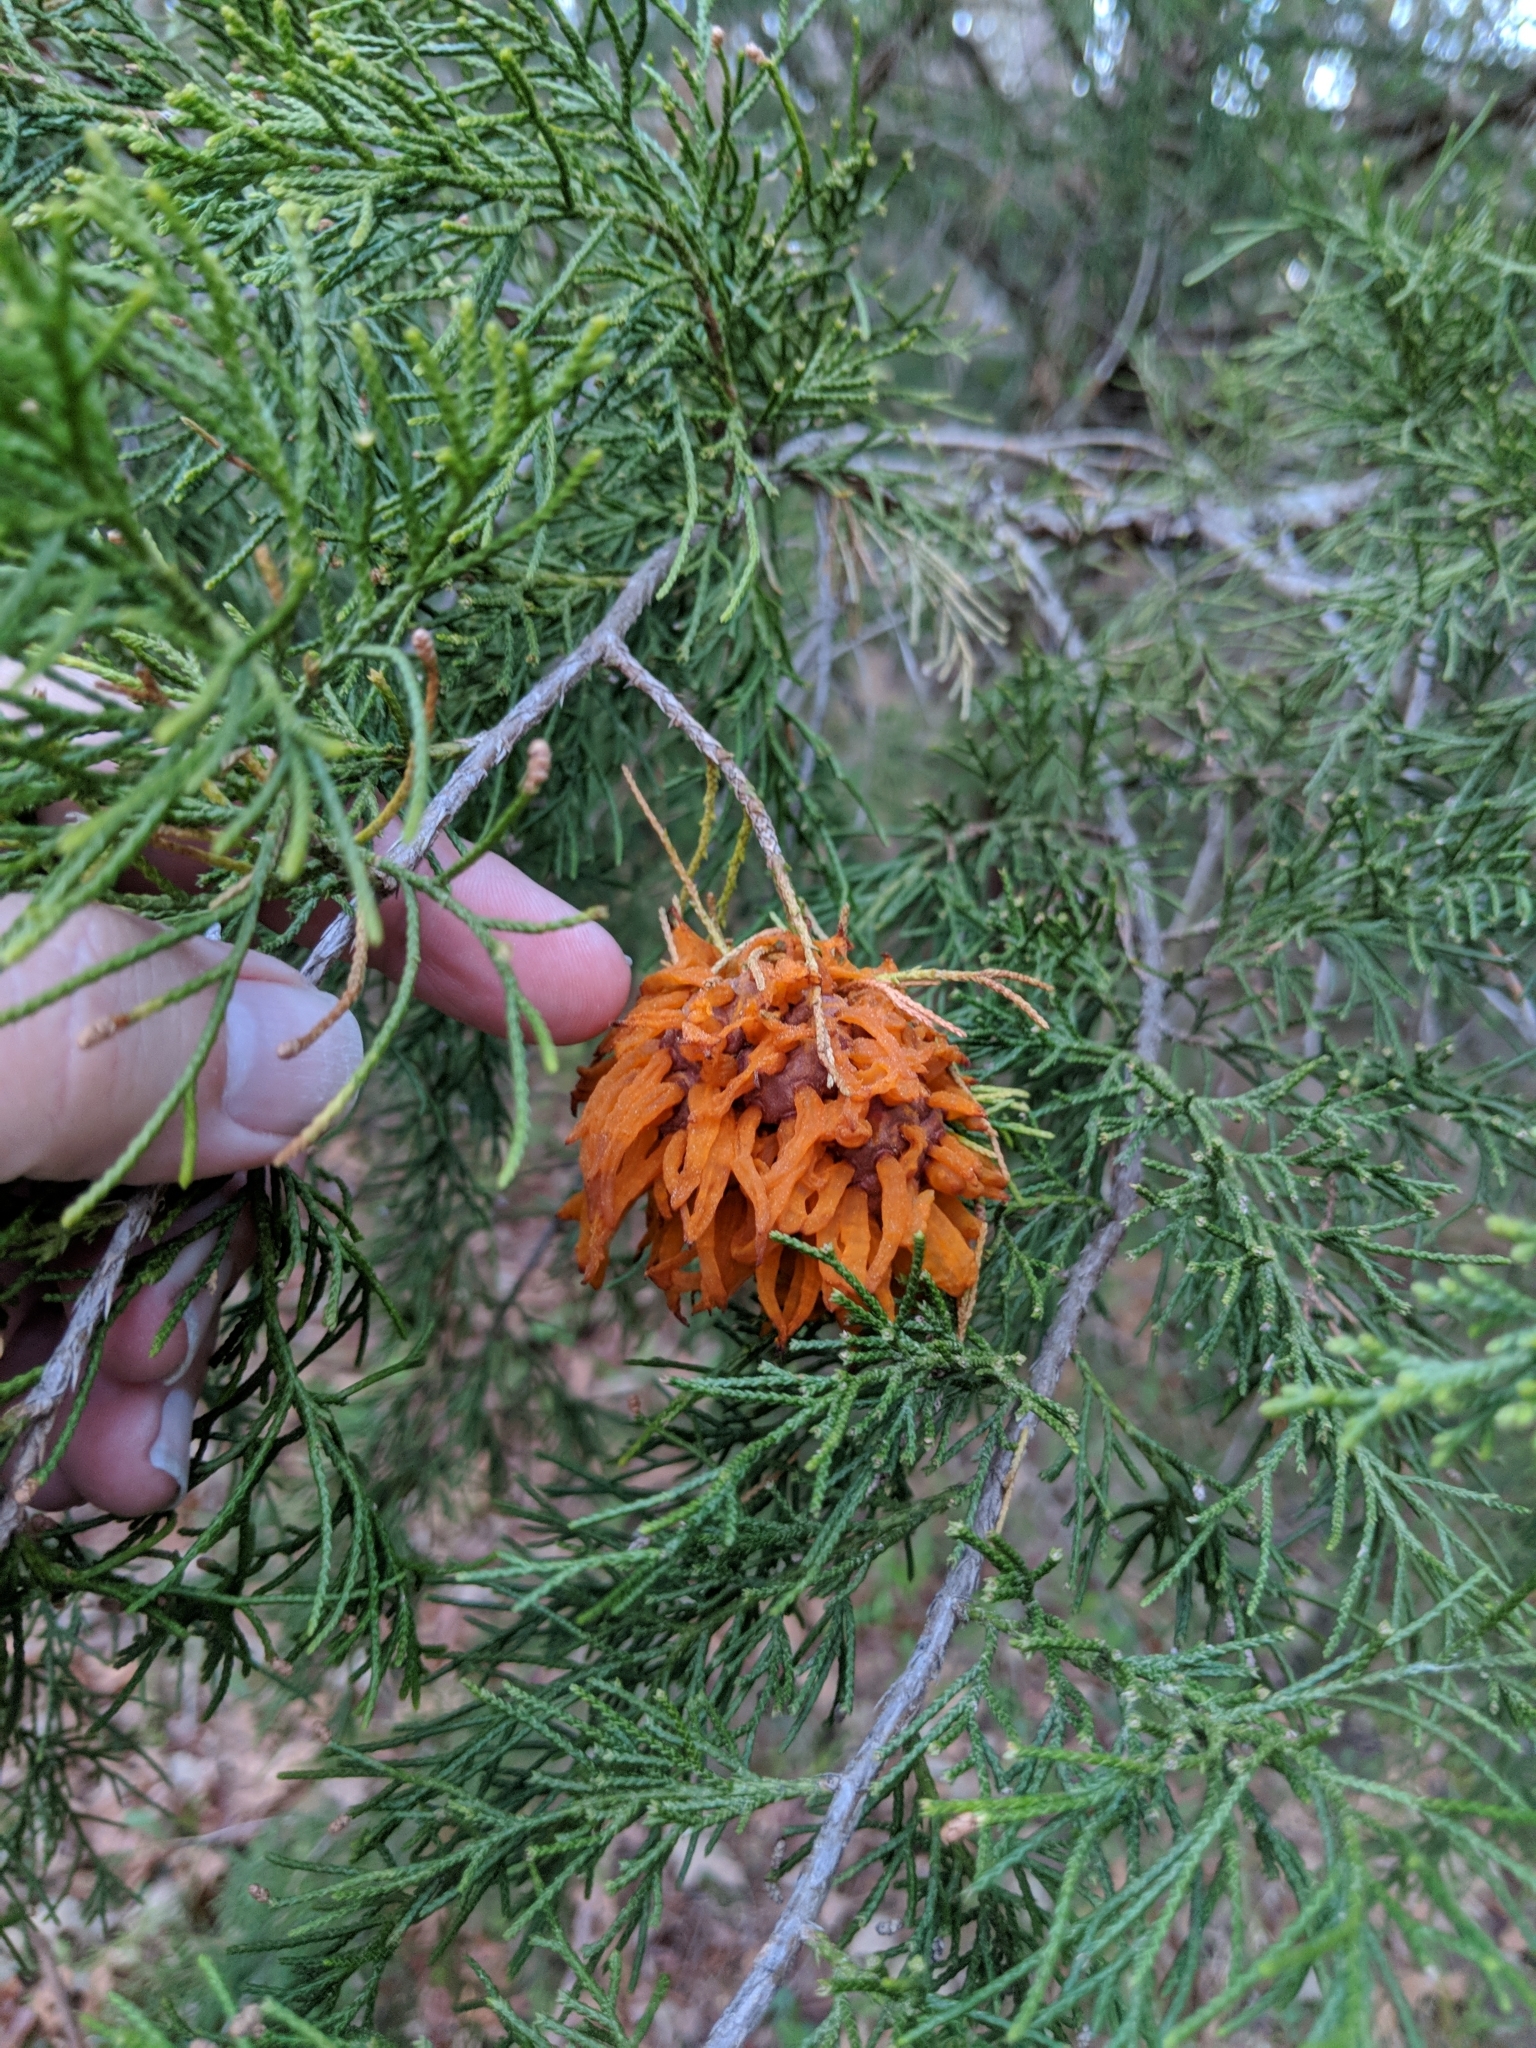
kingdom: Fungi
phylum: Basidiomycota
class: Pucciniomycetes
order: Pucciniales
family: Gymnosporangiaceae
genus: Gymnosporangium
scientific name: Gymnosporangium juniperi-virginianae
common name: Juniper-apple rust
